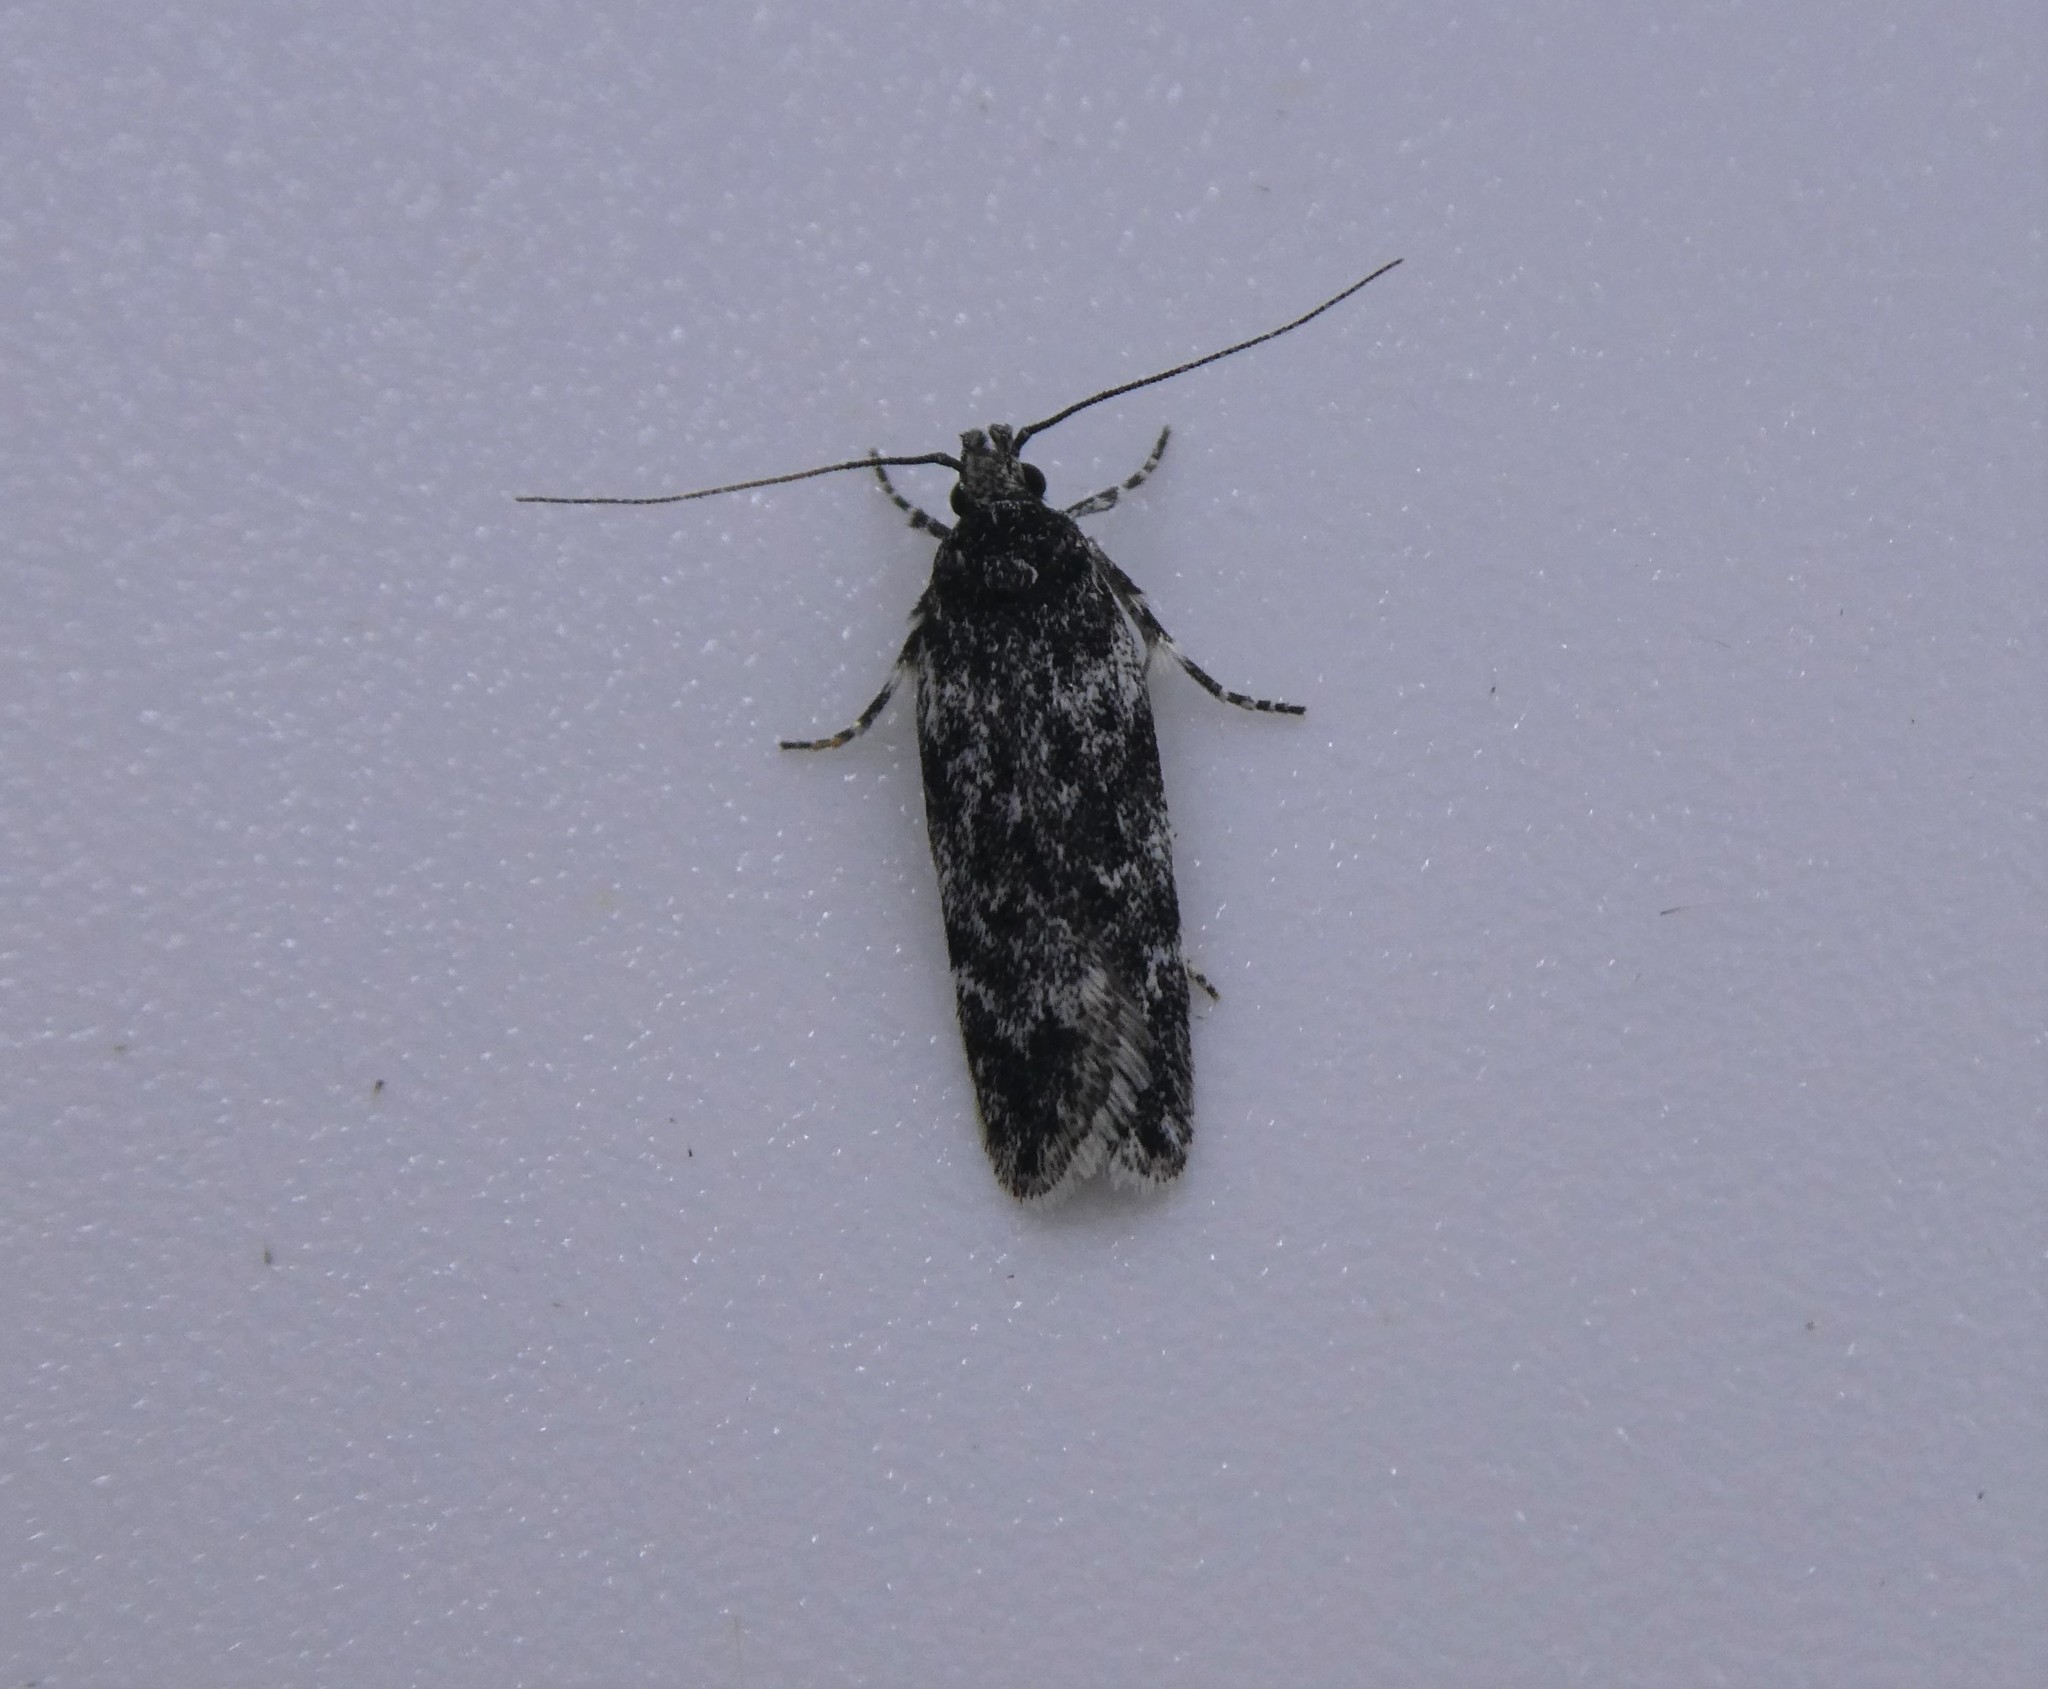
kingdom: Animalia
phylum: Arthropoda
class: Insecta
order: Lepidoptera
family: Gelechiidae
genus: Gelechia
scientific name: Gelechia lynceella
